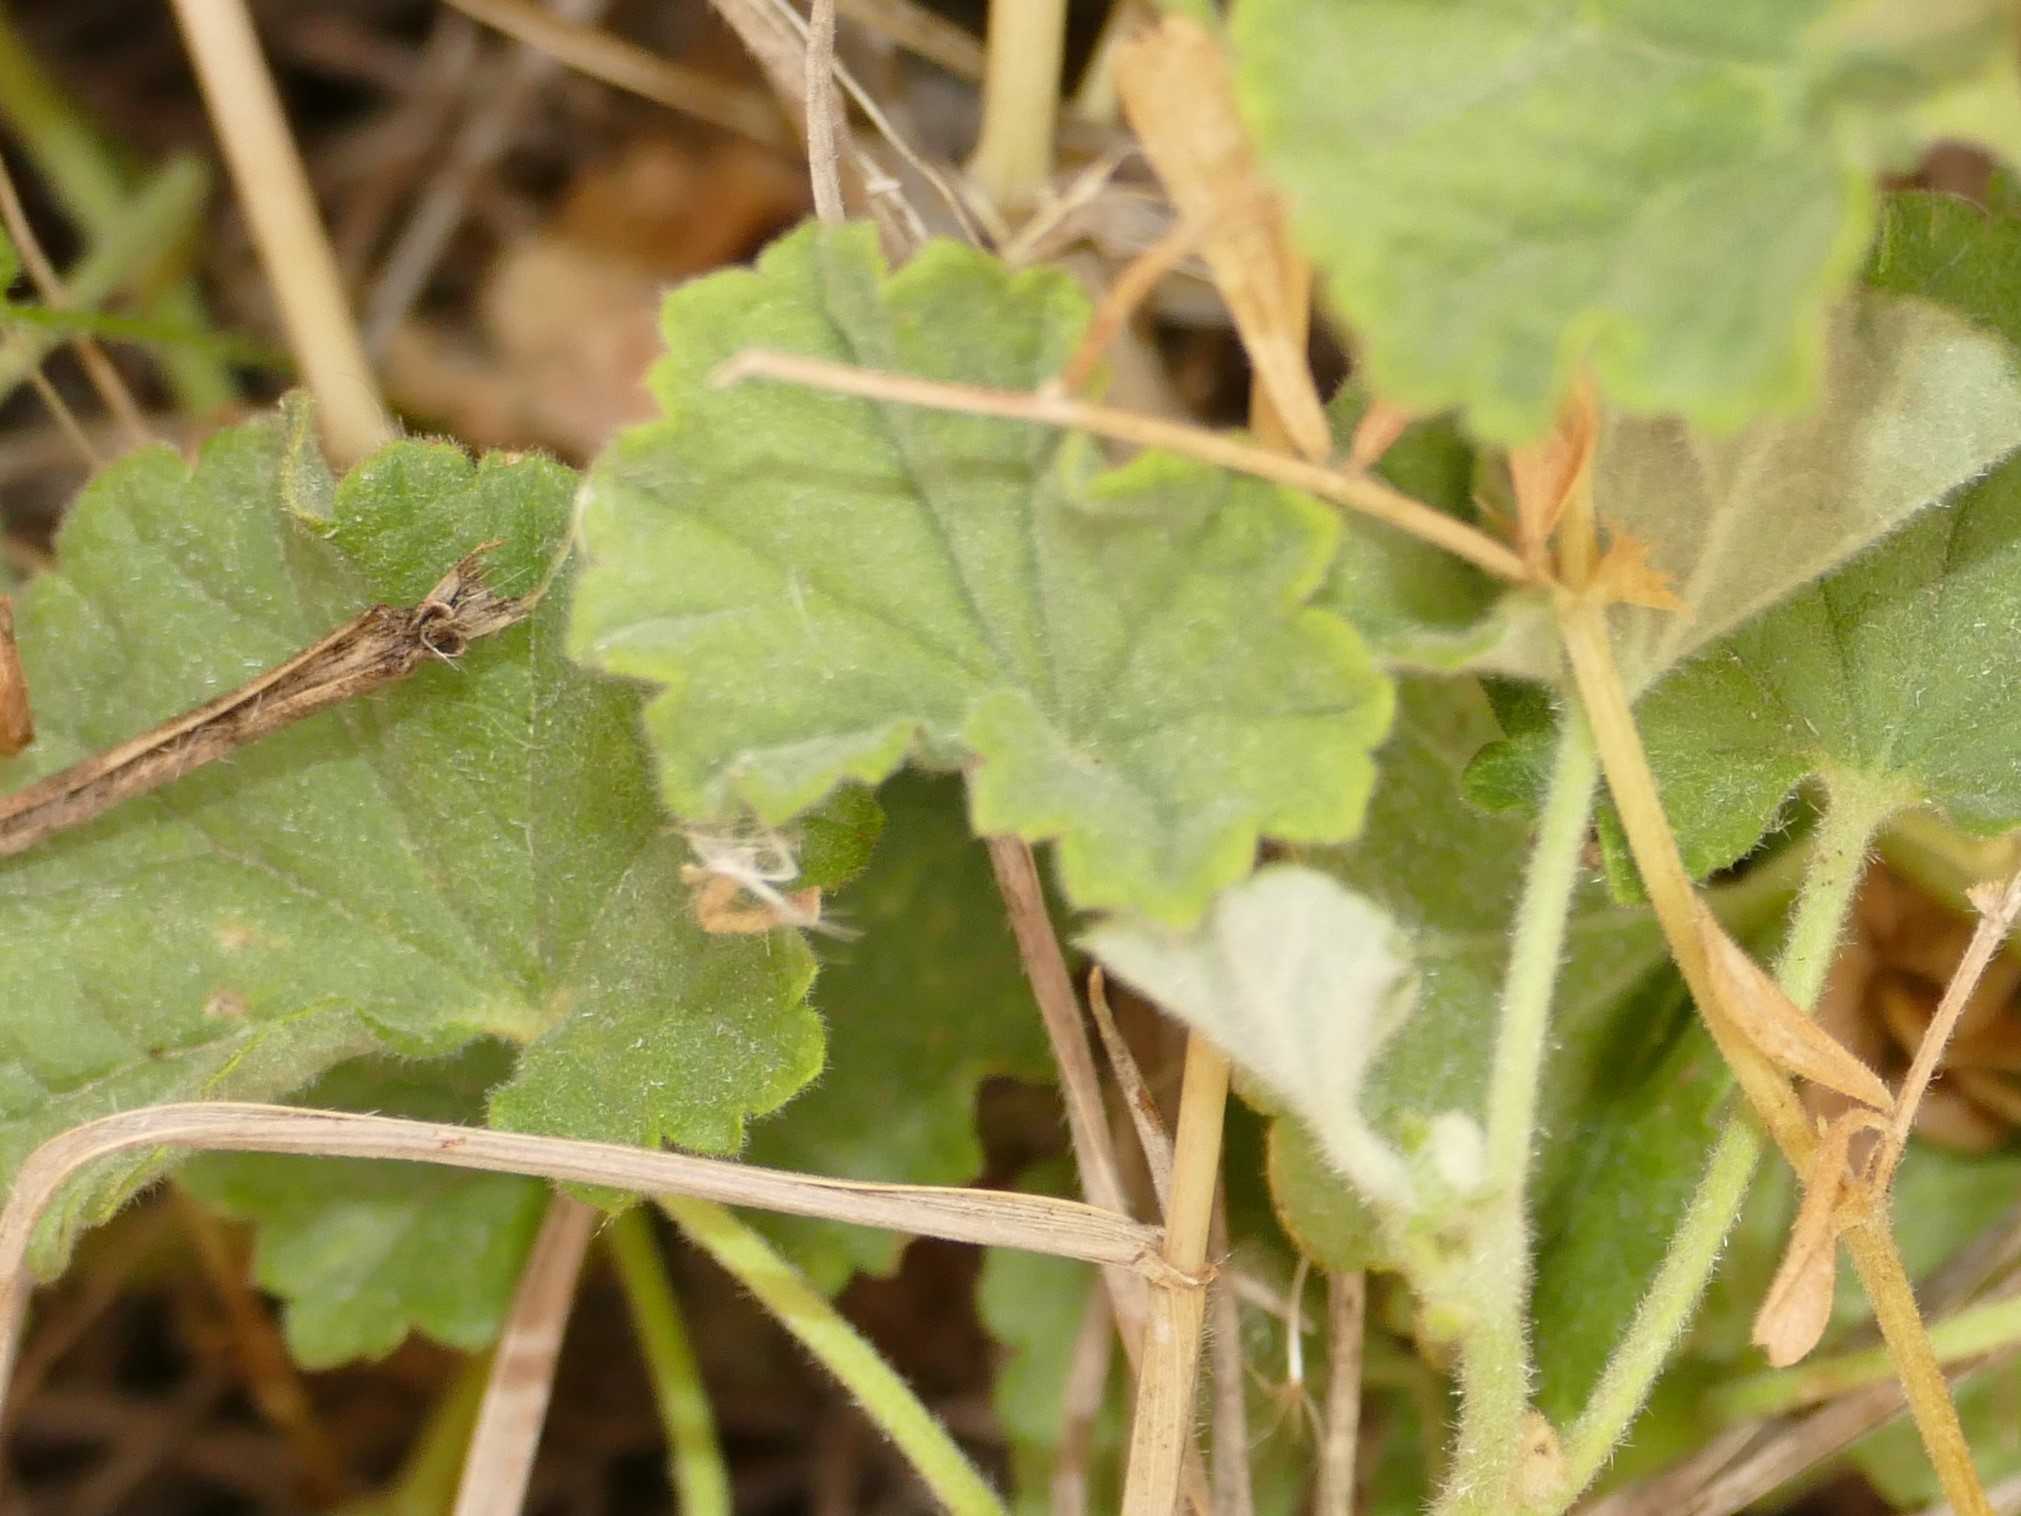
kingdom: Plantae
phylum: Tracheophyta
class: Magnoliopsida
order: Malvales
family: Malvaceae
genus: Malvella
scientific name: Malvella sherardiana
